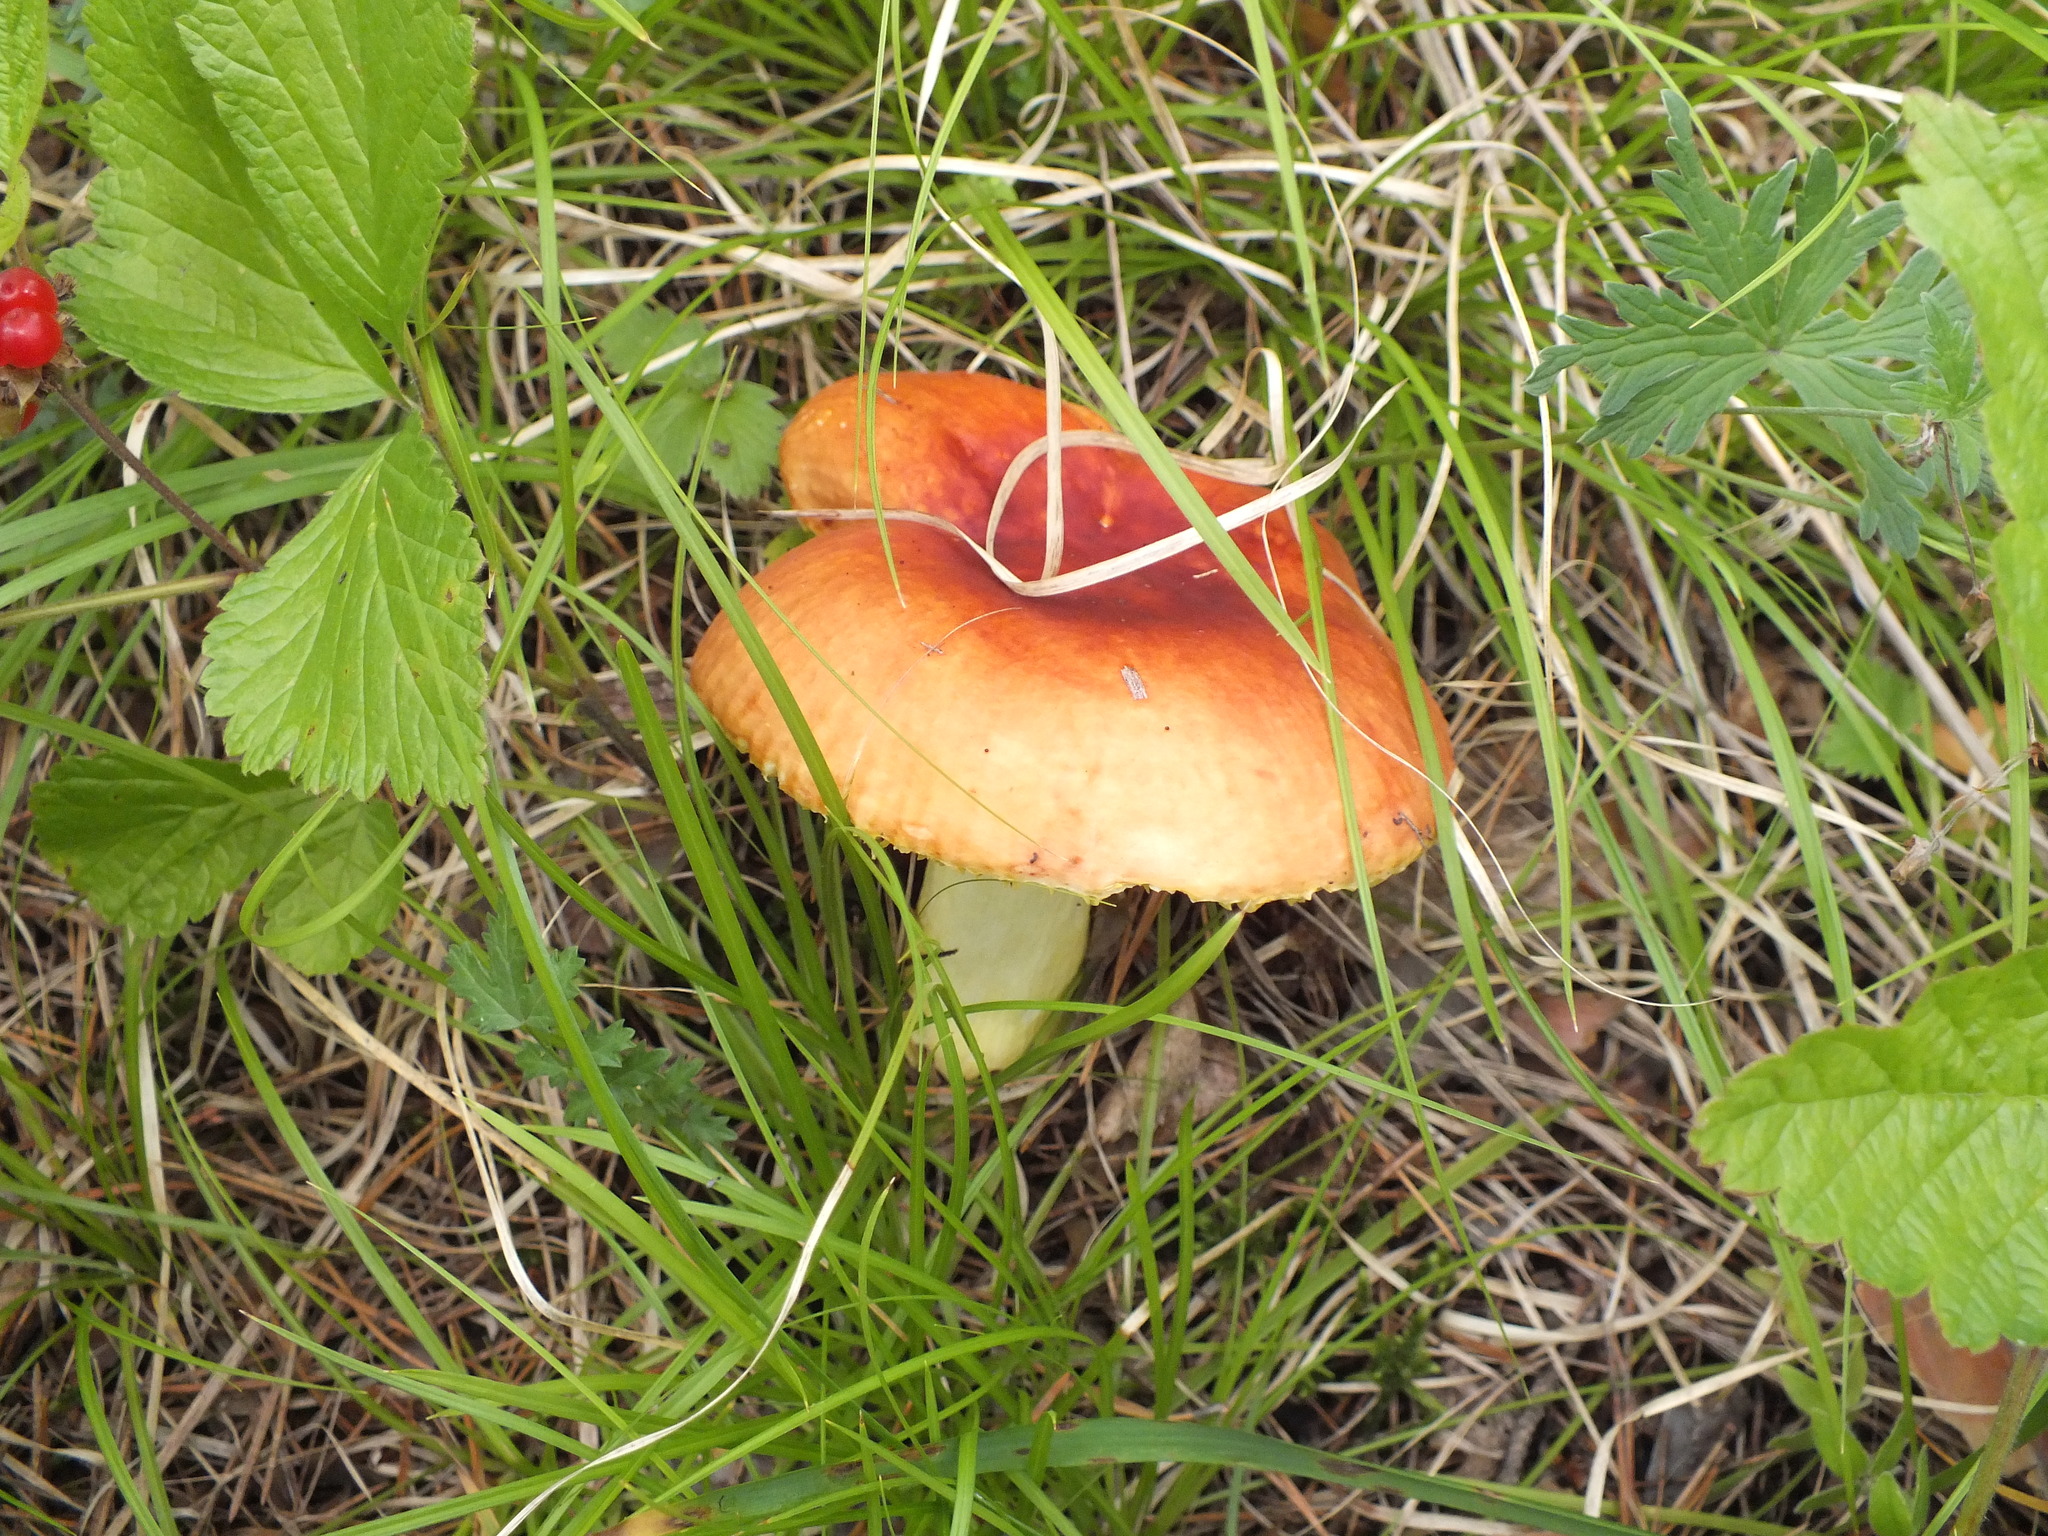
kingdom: Fungi
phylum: Basidiomycota
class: Agaricomycetes
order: Russulales
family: Russulaceae
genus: Russula
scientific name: Russula aurea
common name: Gilded brittlegill
